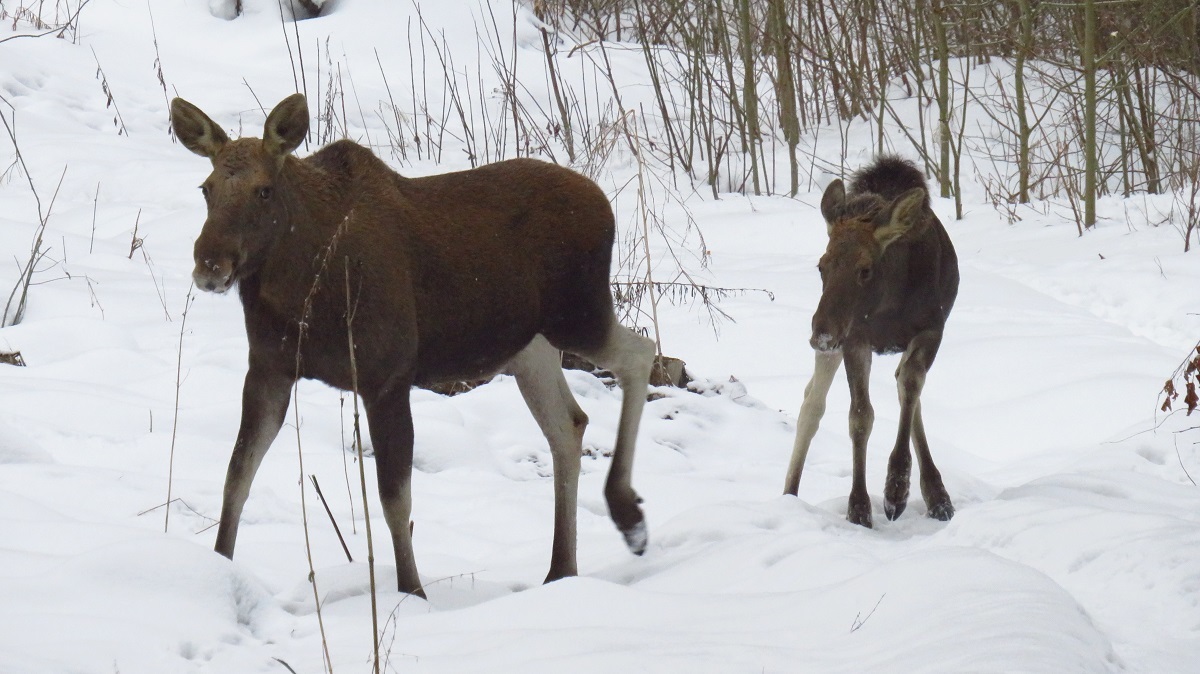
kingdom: Animalia
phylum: Chordata
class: Mammalia
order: Artiodactyla
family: Cervidae
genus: Alces
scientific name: Alces alces
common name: Moose
